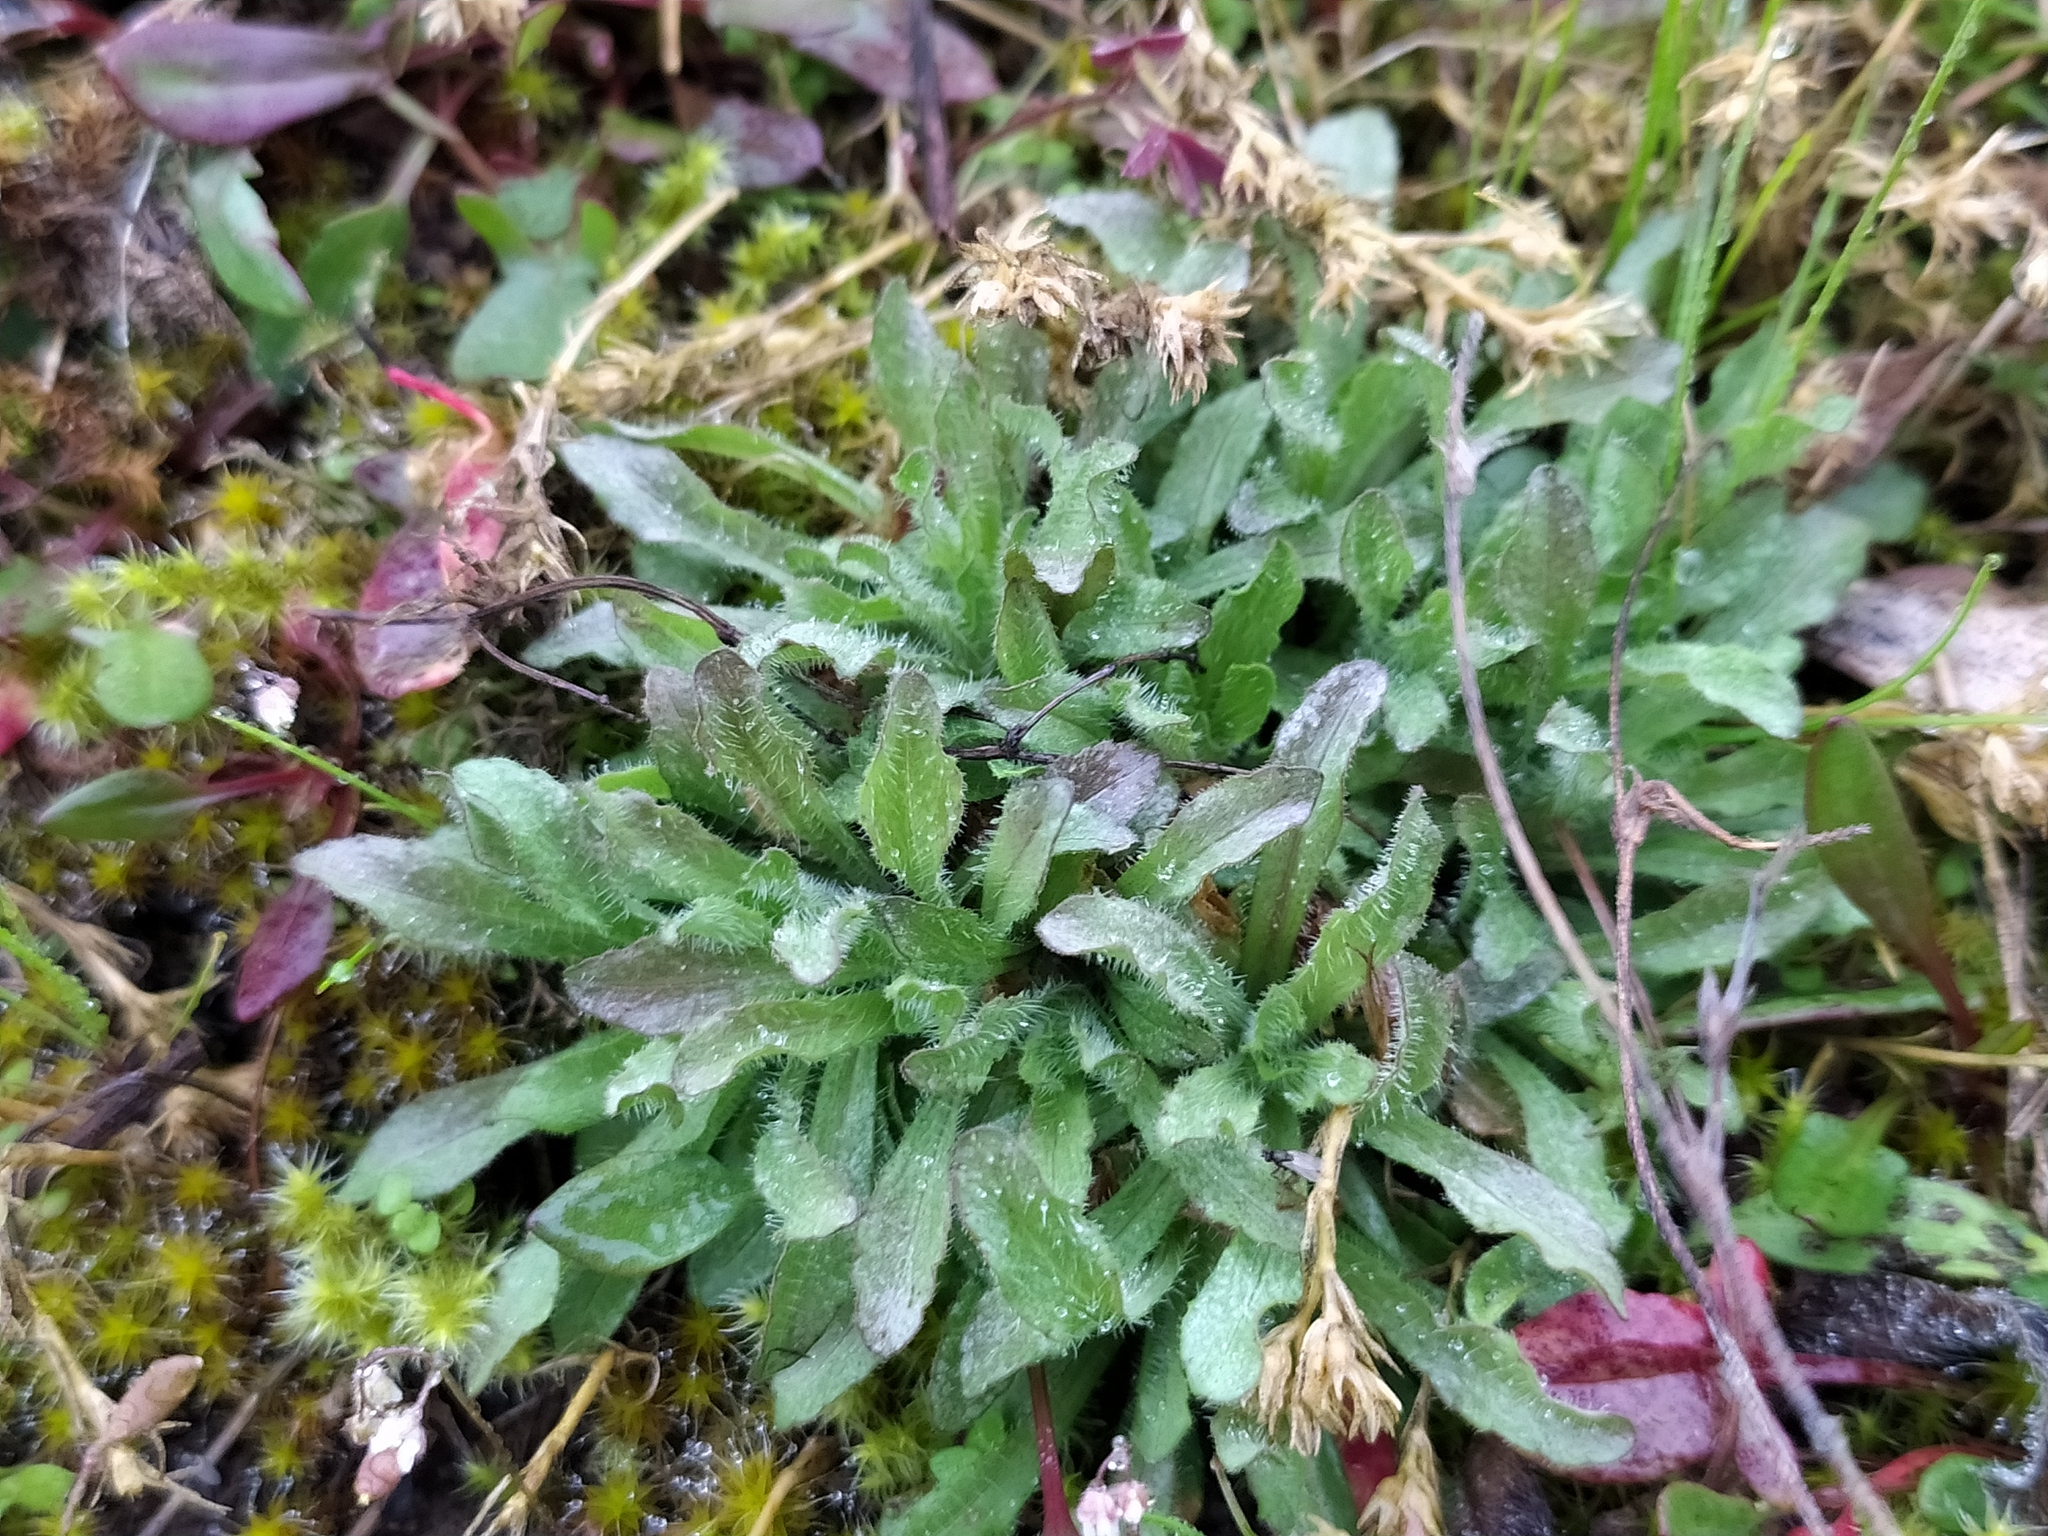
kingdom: Plantae
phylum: Tracheophyta
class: Magnoliopsida
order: Asterales
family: Campanulaceae
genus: Jasione
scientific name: Jasione montana
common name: Sheep's-bit
